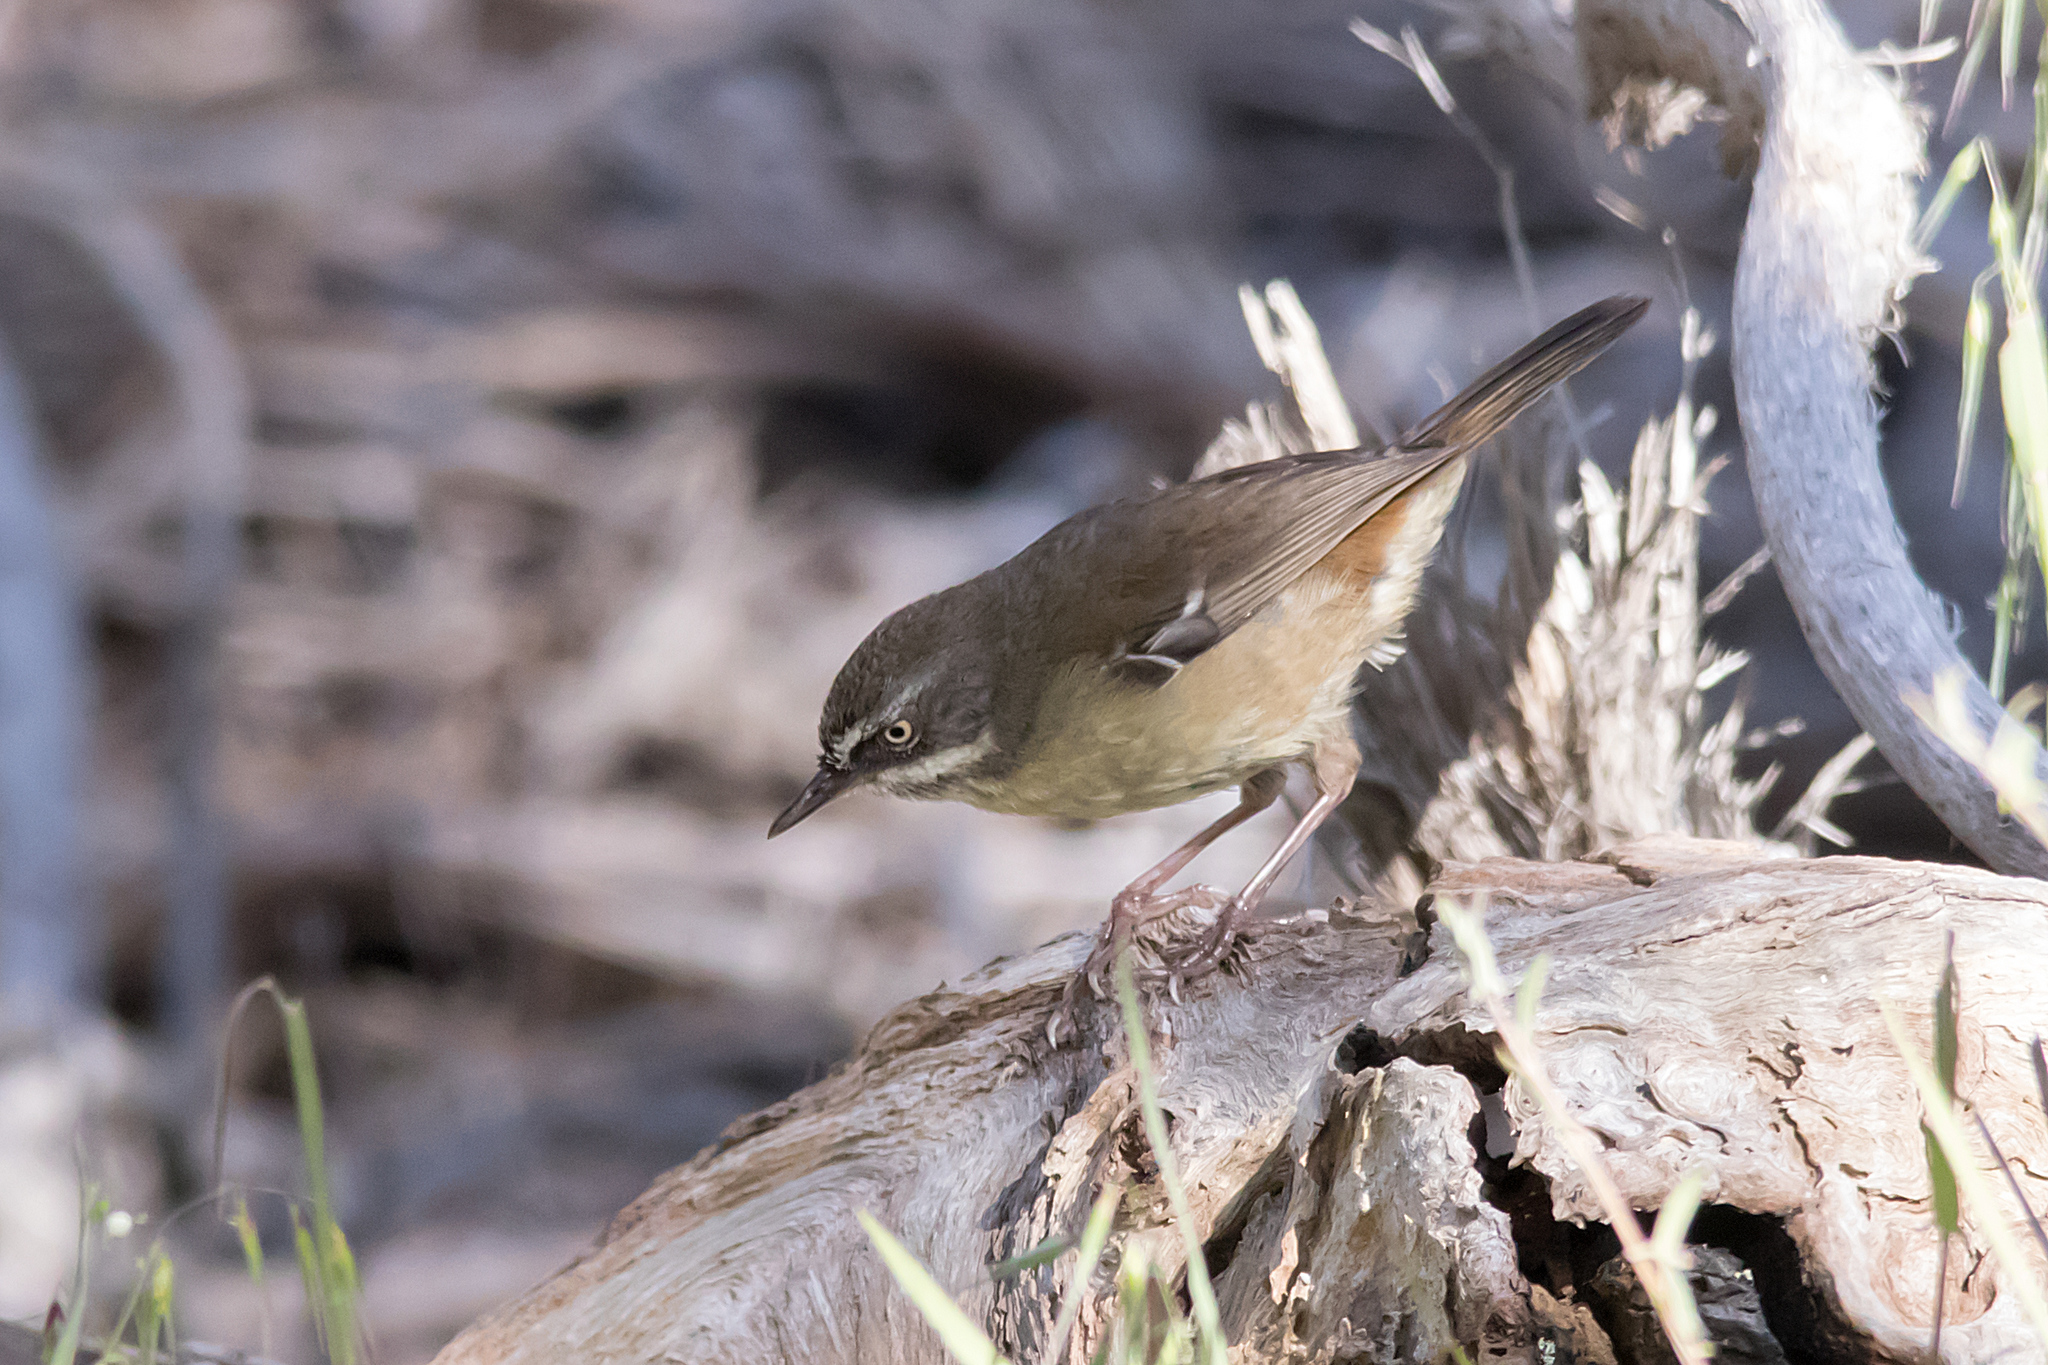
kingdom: Animalia
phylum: Chordata
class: Aves
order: Passeriformes
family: Acanthizidae
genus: Sericornis
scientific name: Sericornis frontalis
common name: White-browed scrubwren
